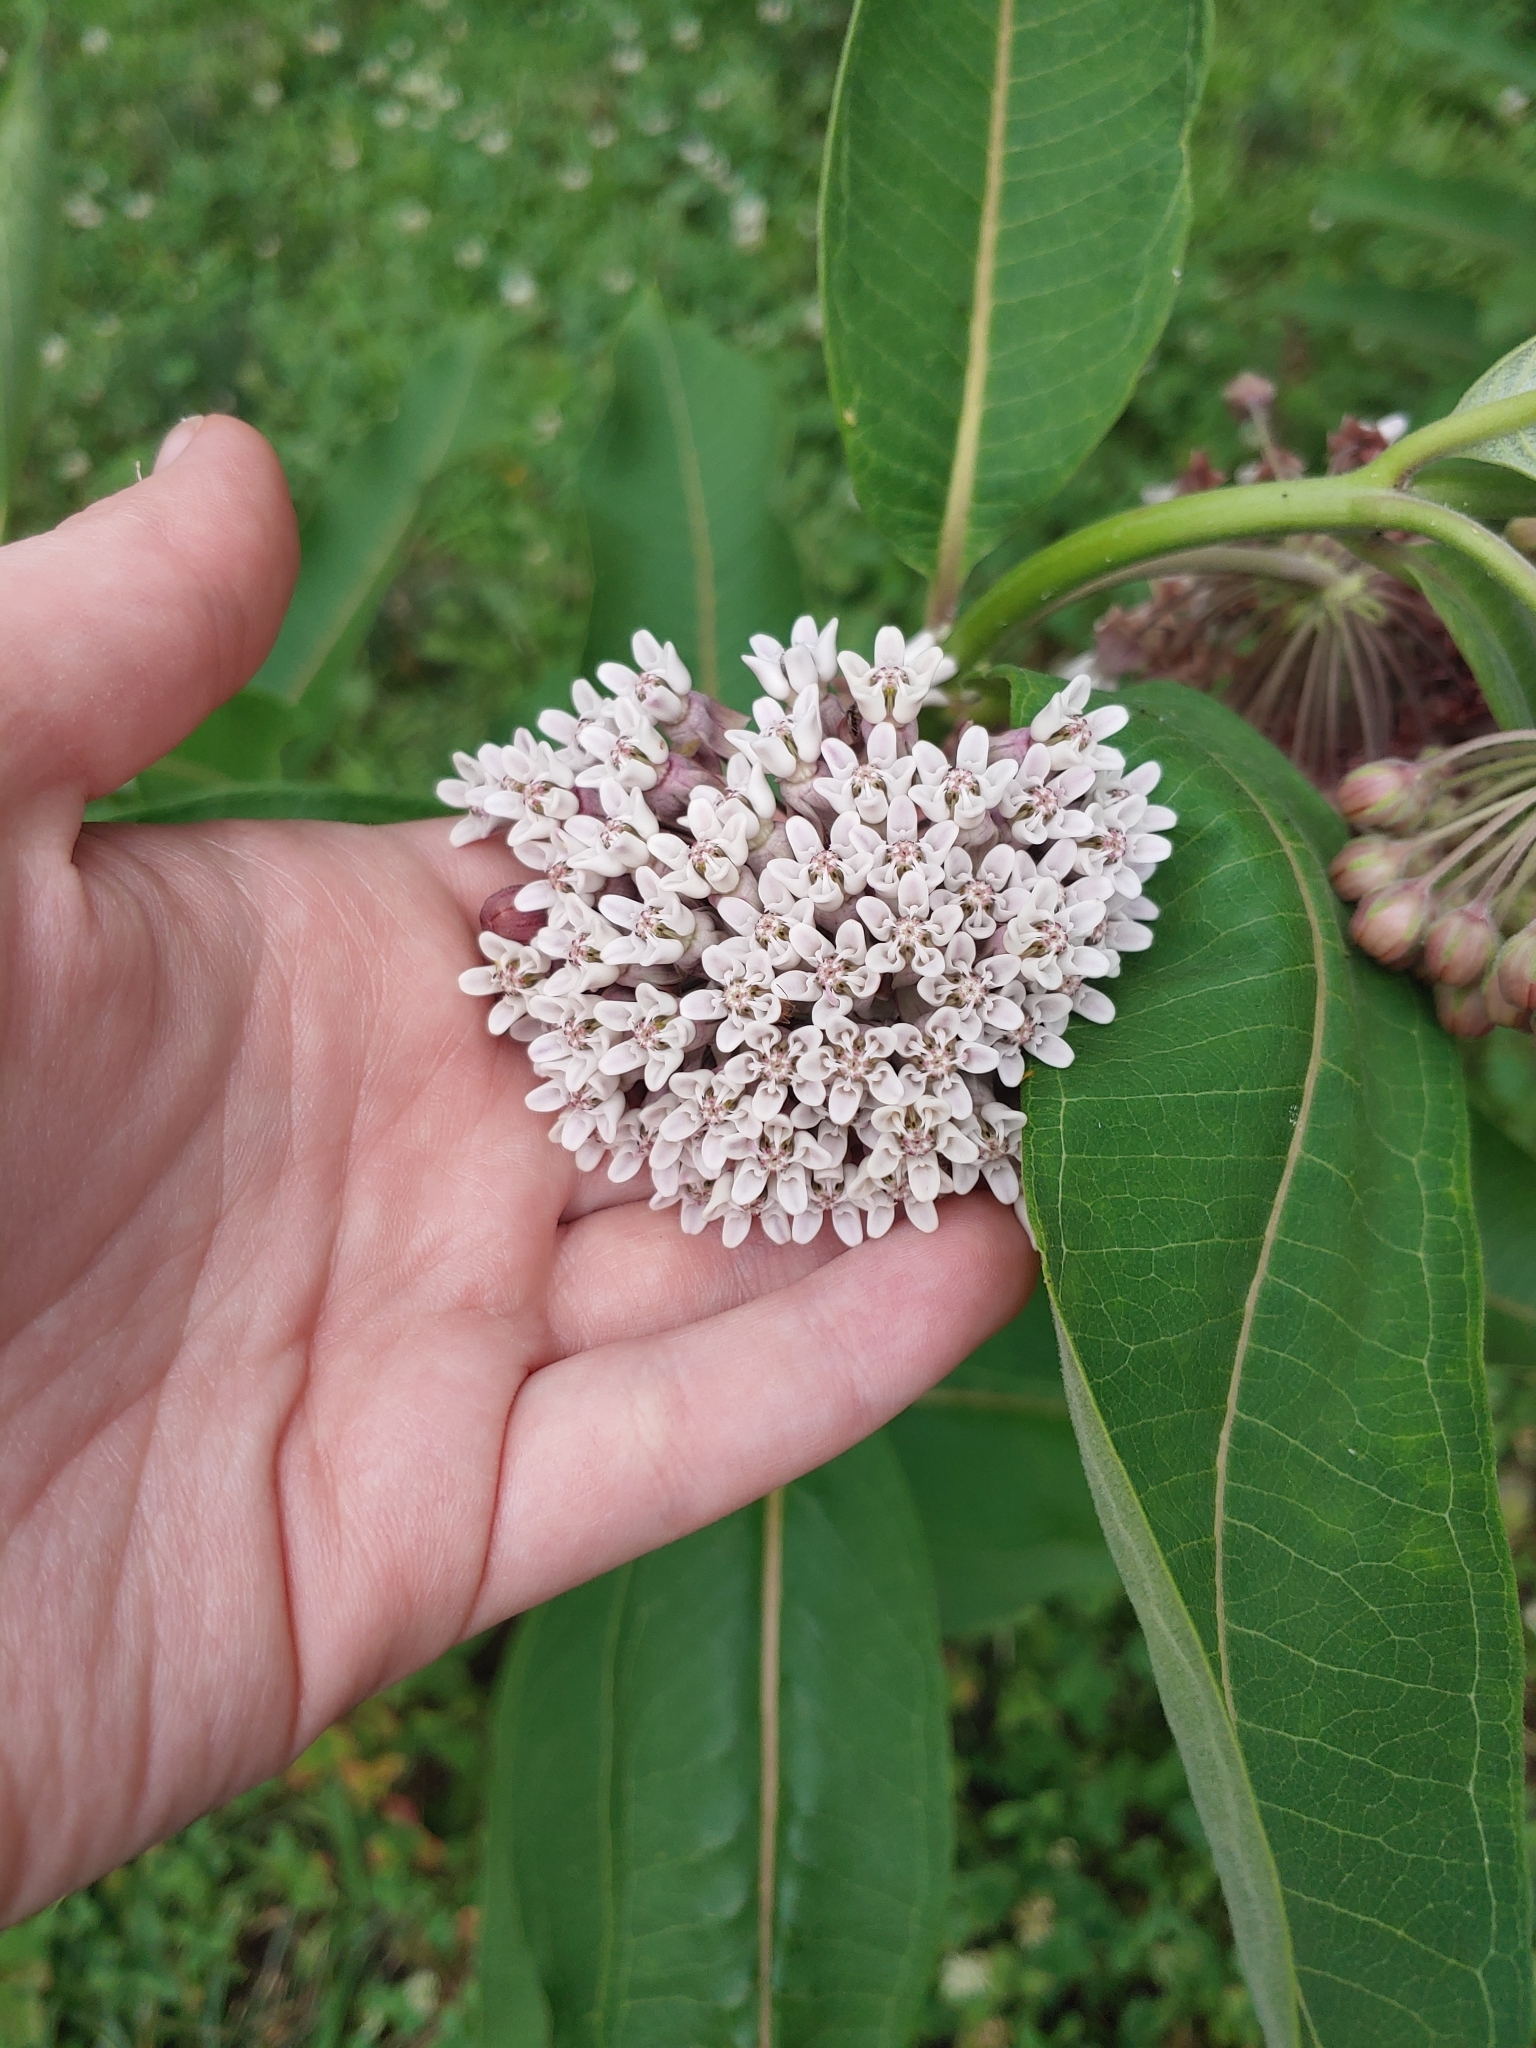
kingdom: Plantae
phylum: Tracheophyta
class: Magnoliopsida
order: Gentianales
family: Apocynaceae
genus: Asclepias
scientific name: Asclepias syriaca
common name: Common milkweed
